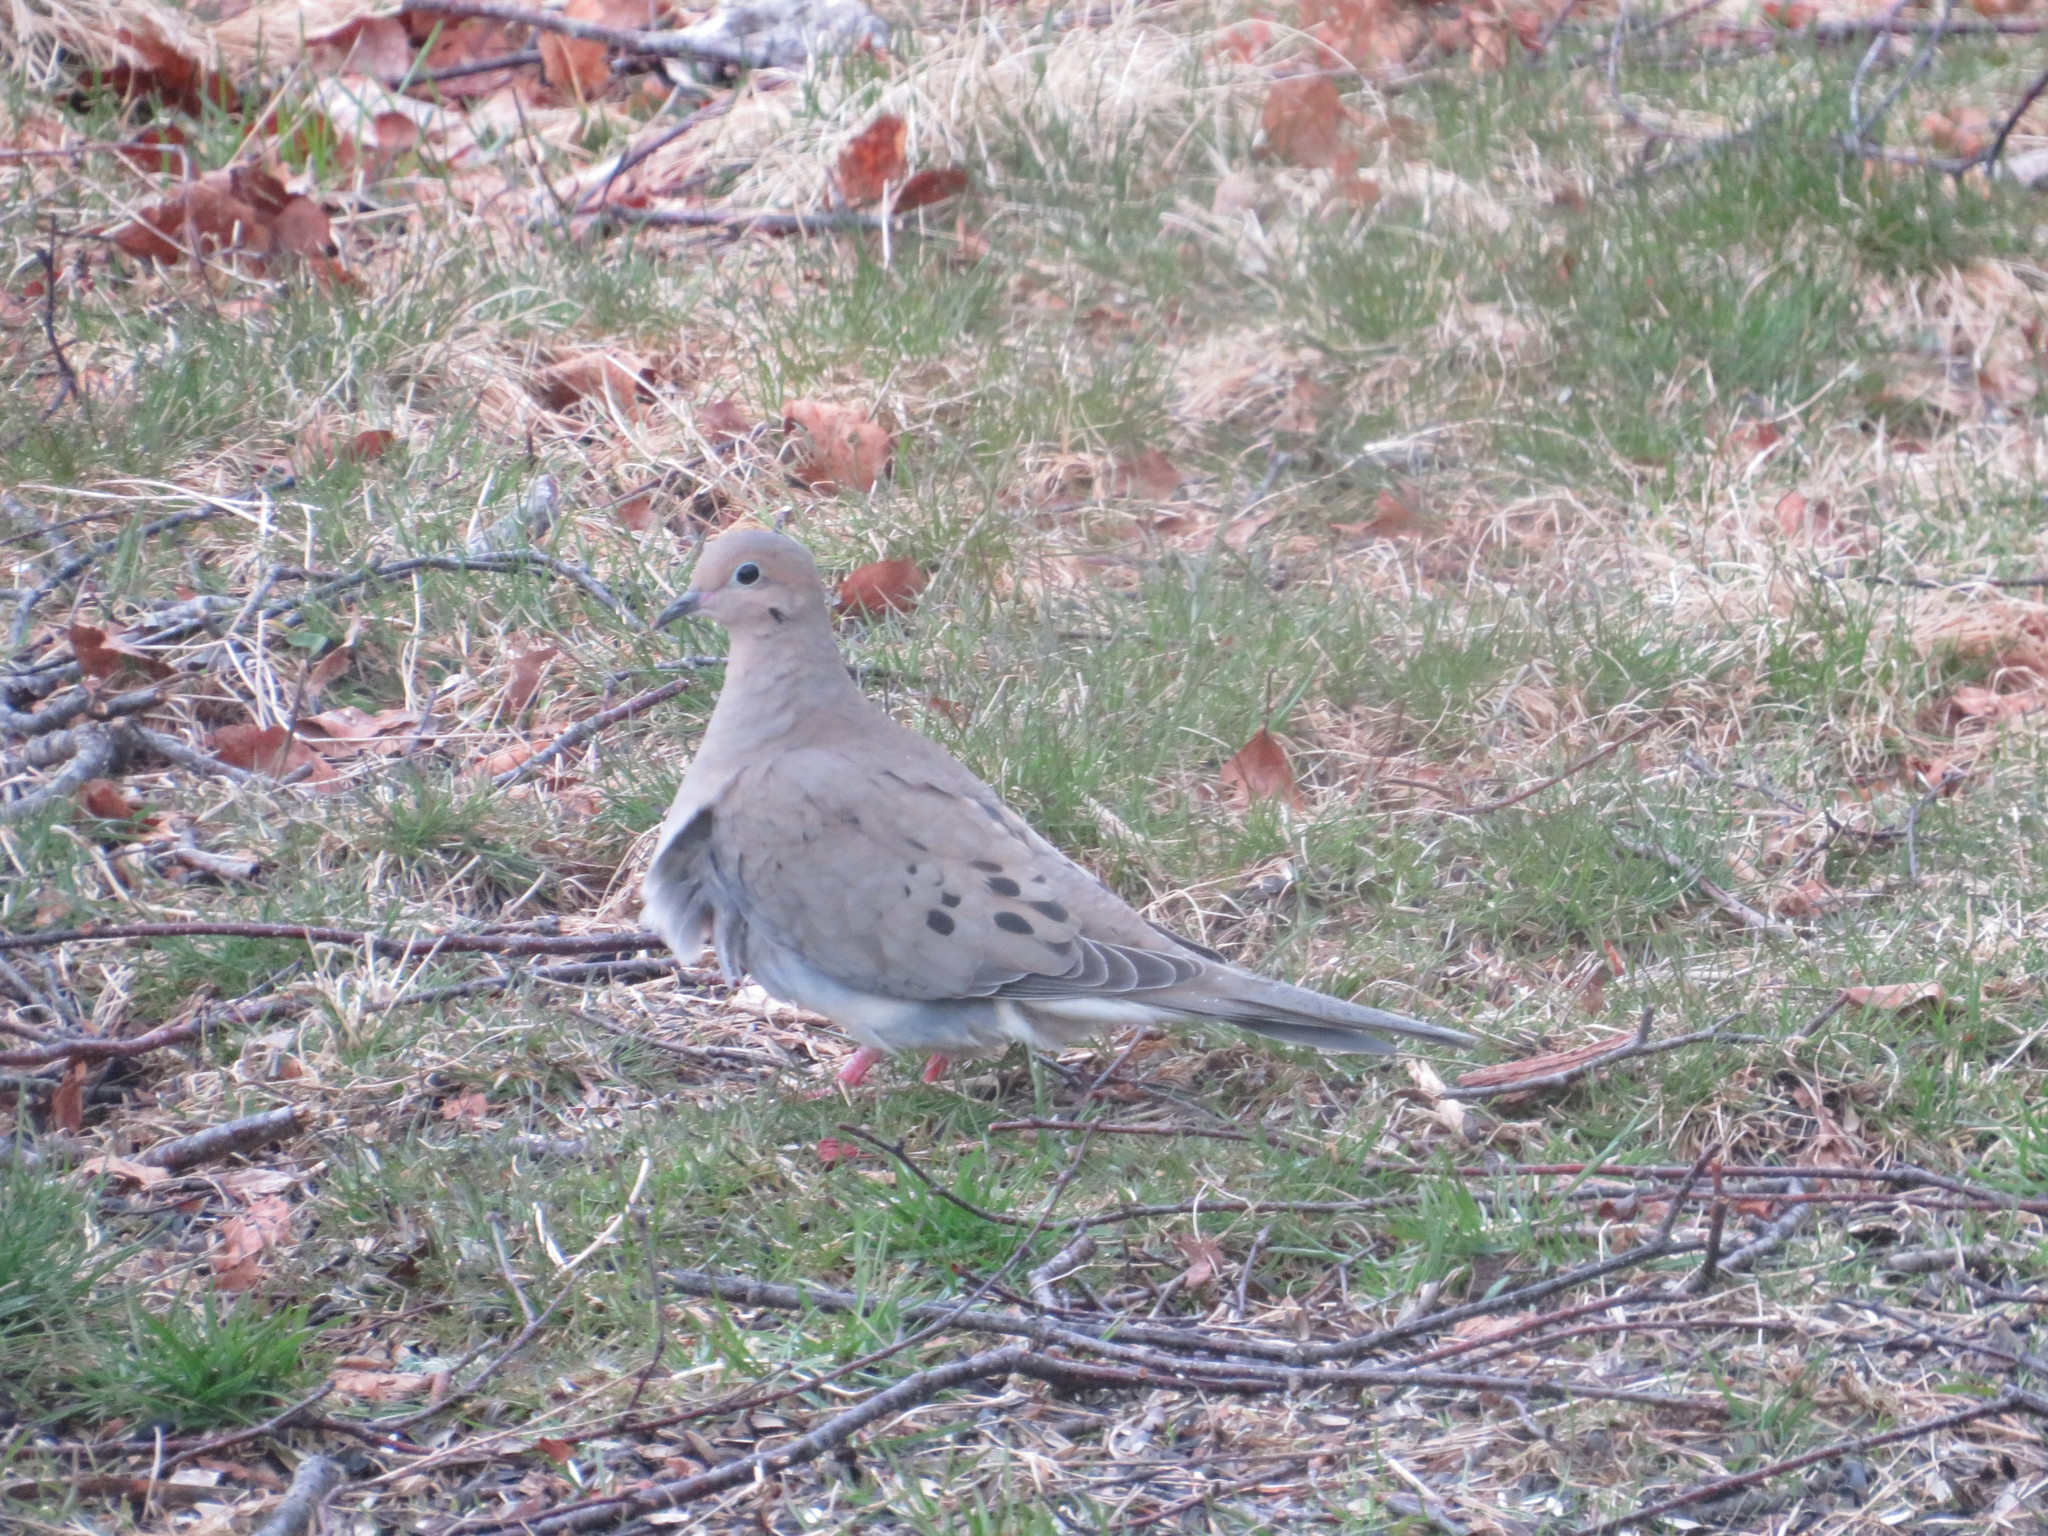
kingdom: Animalia
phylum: Chordata
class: Aves
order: Columbiformes
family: Columbidae
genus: Zenaida
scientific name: Zenaida macroura
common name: Mourning dove
